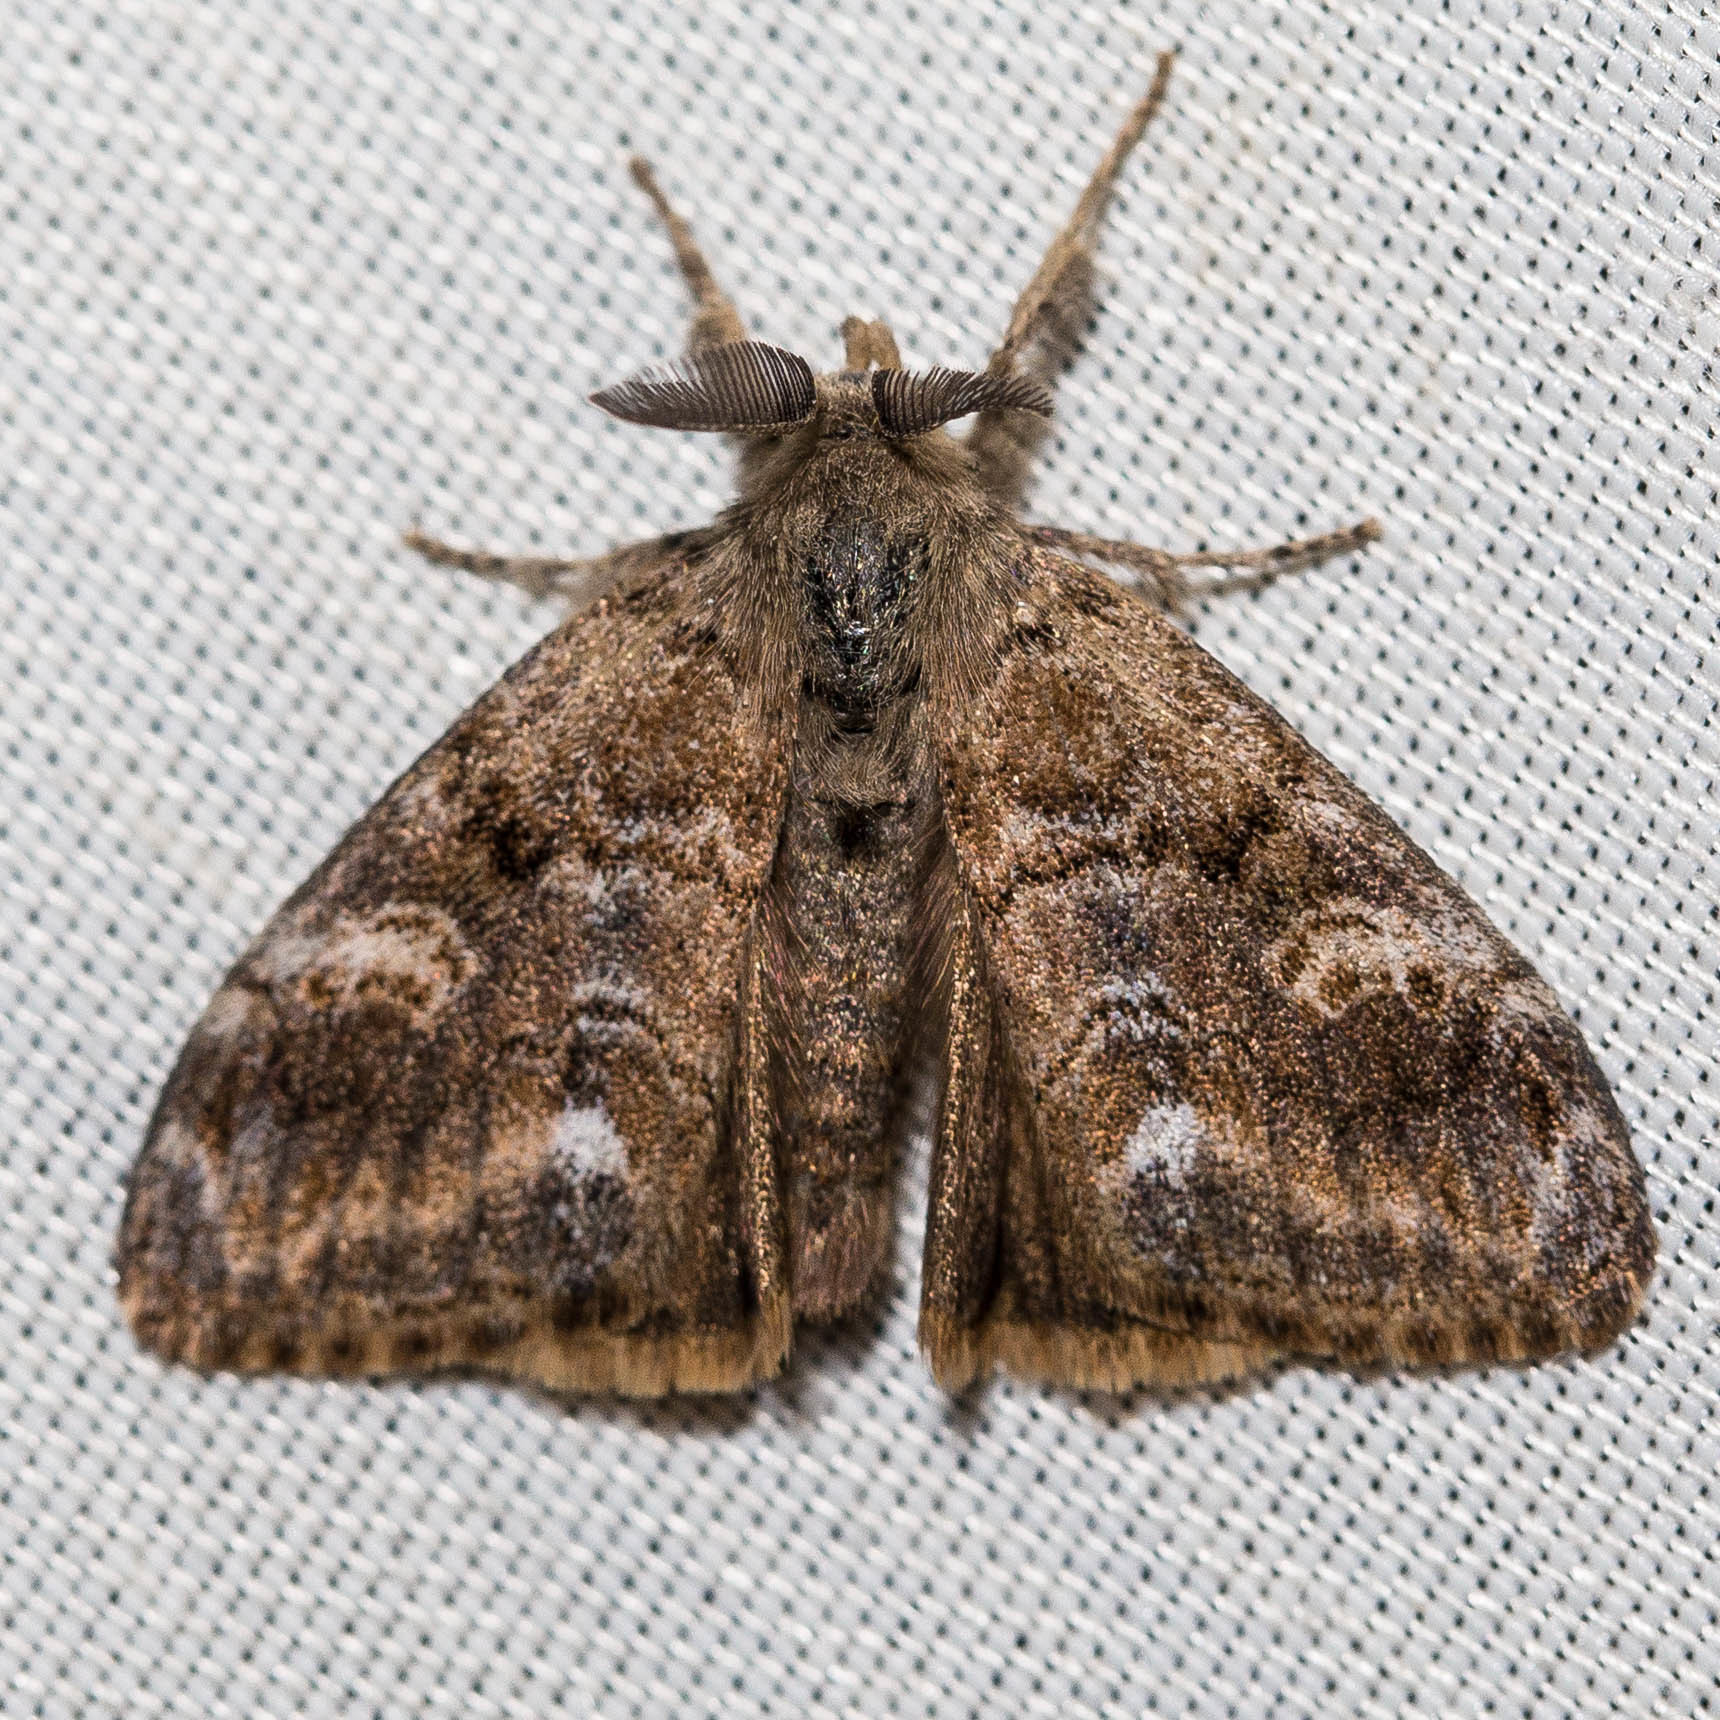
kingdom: Animalia
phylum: Arthropoda
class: Insecta
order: Lepidoptera
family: Erebidae
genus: Orgyia
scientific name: Orgyia vetusta
